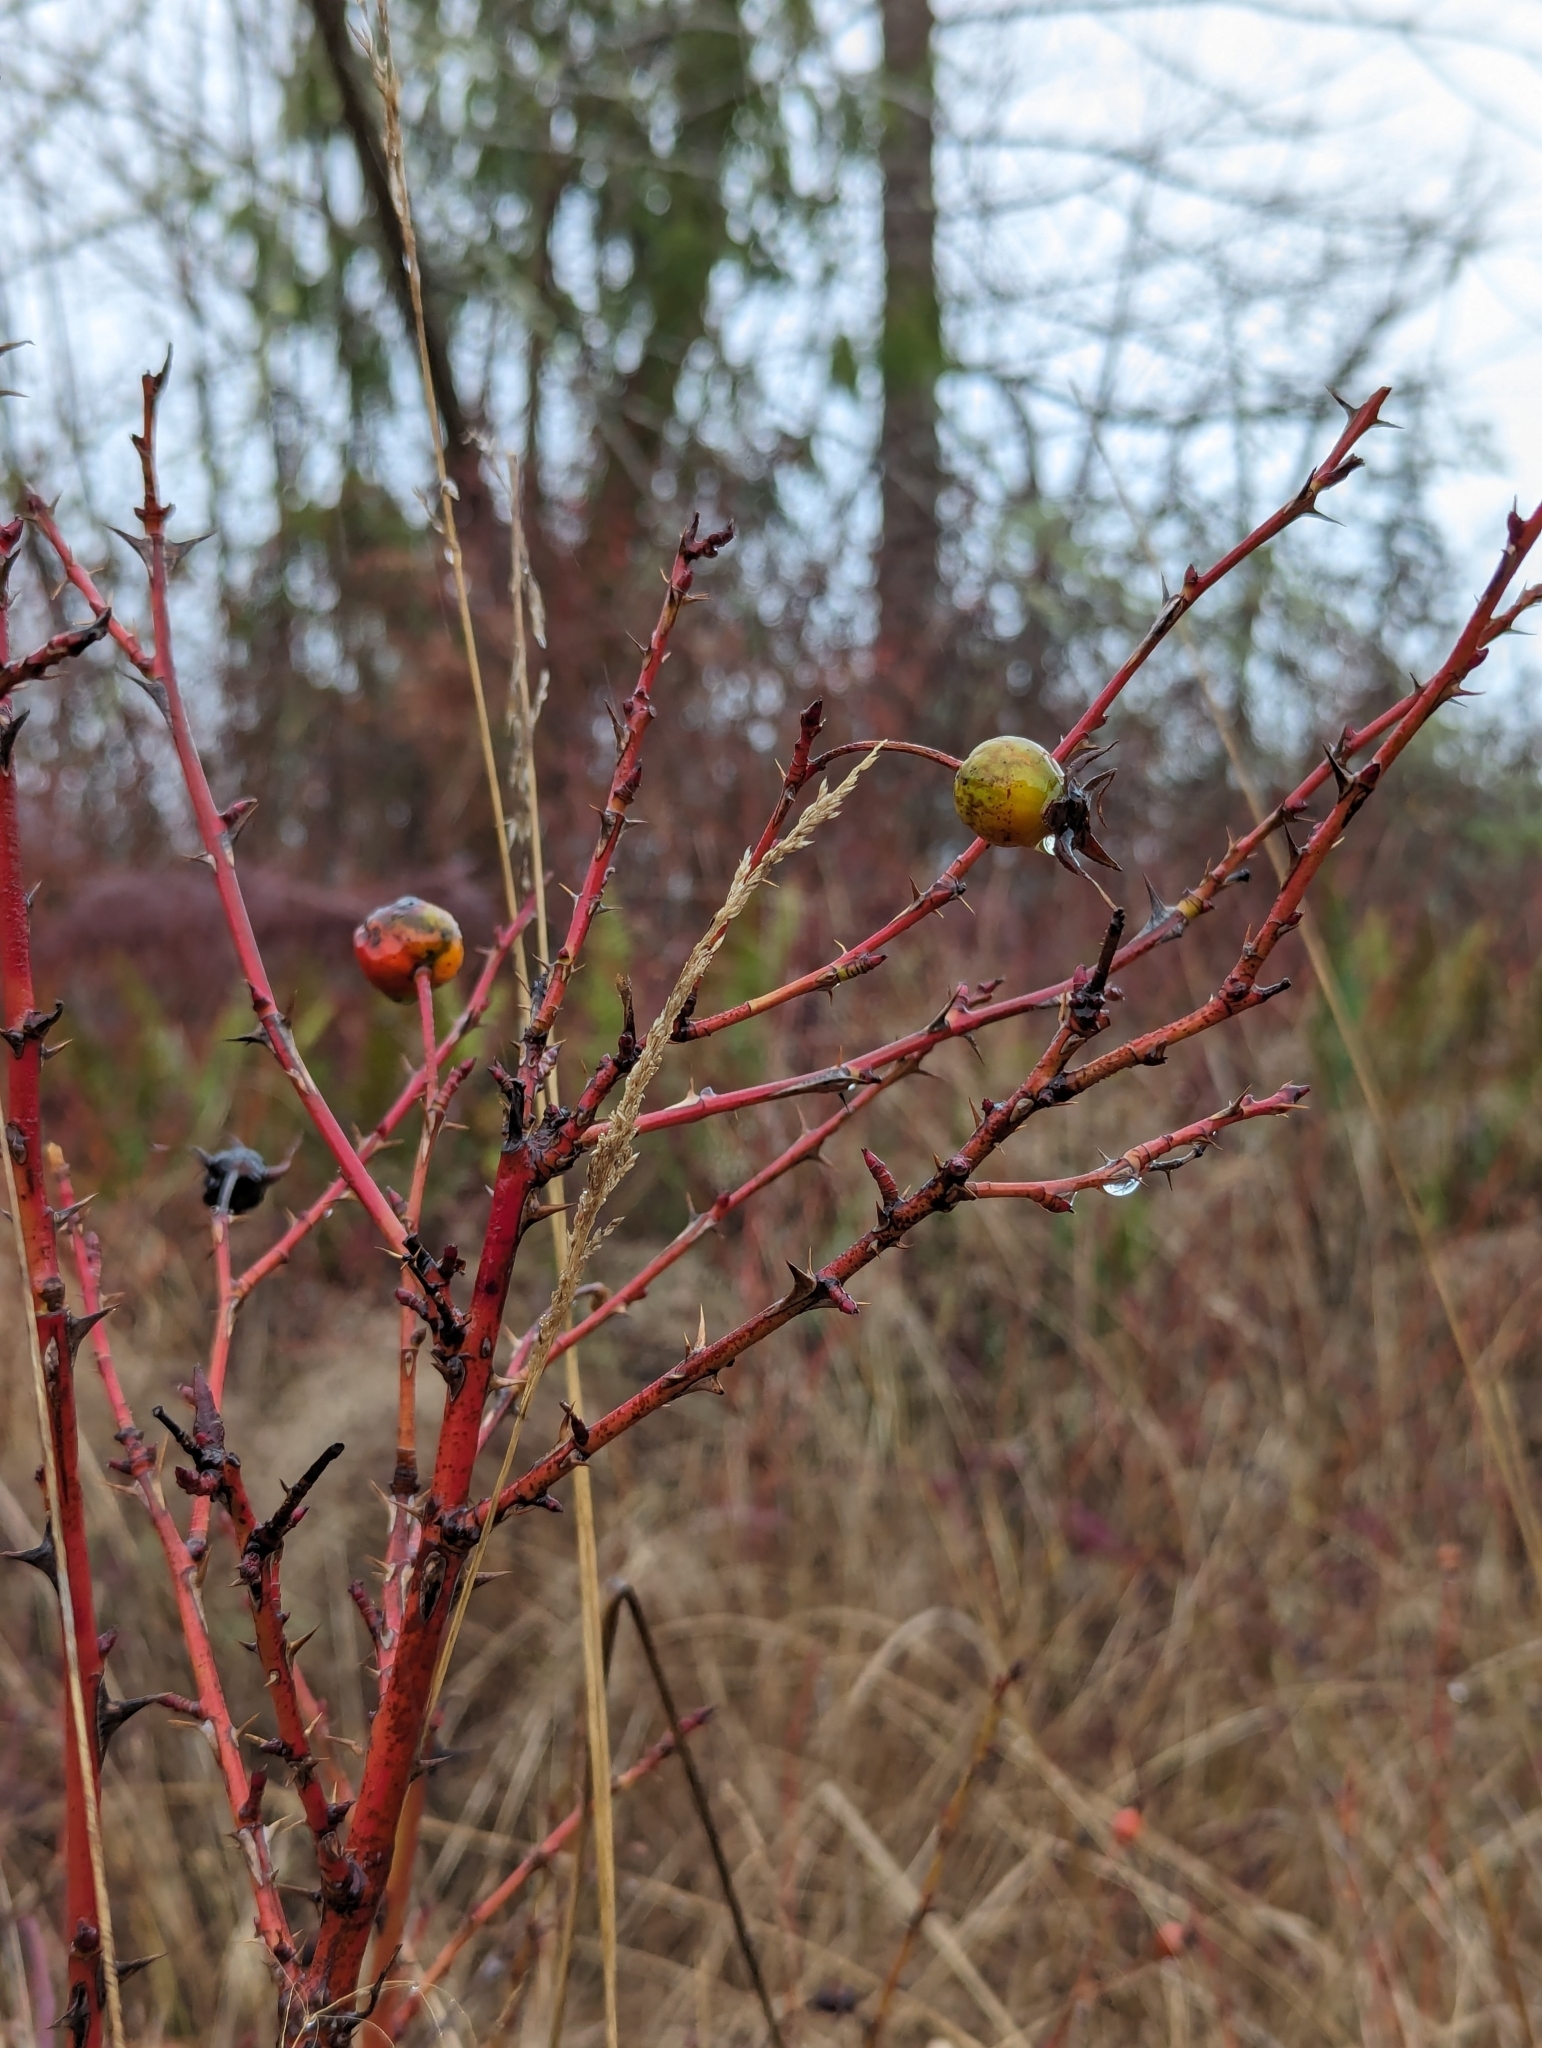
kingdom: Plantae
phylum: Tracheophyta
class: Magnoliopsida
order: Rosales
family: Rosaceae
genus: Rosa
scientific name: Rosa nutkana
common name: Nootka rose
